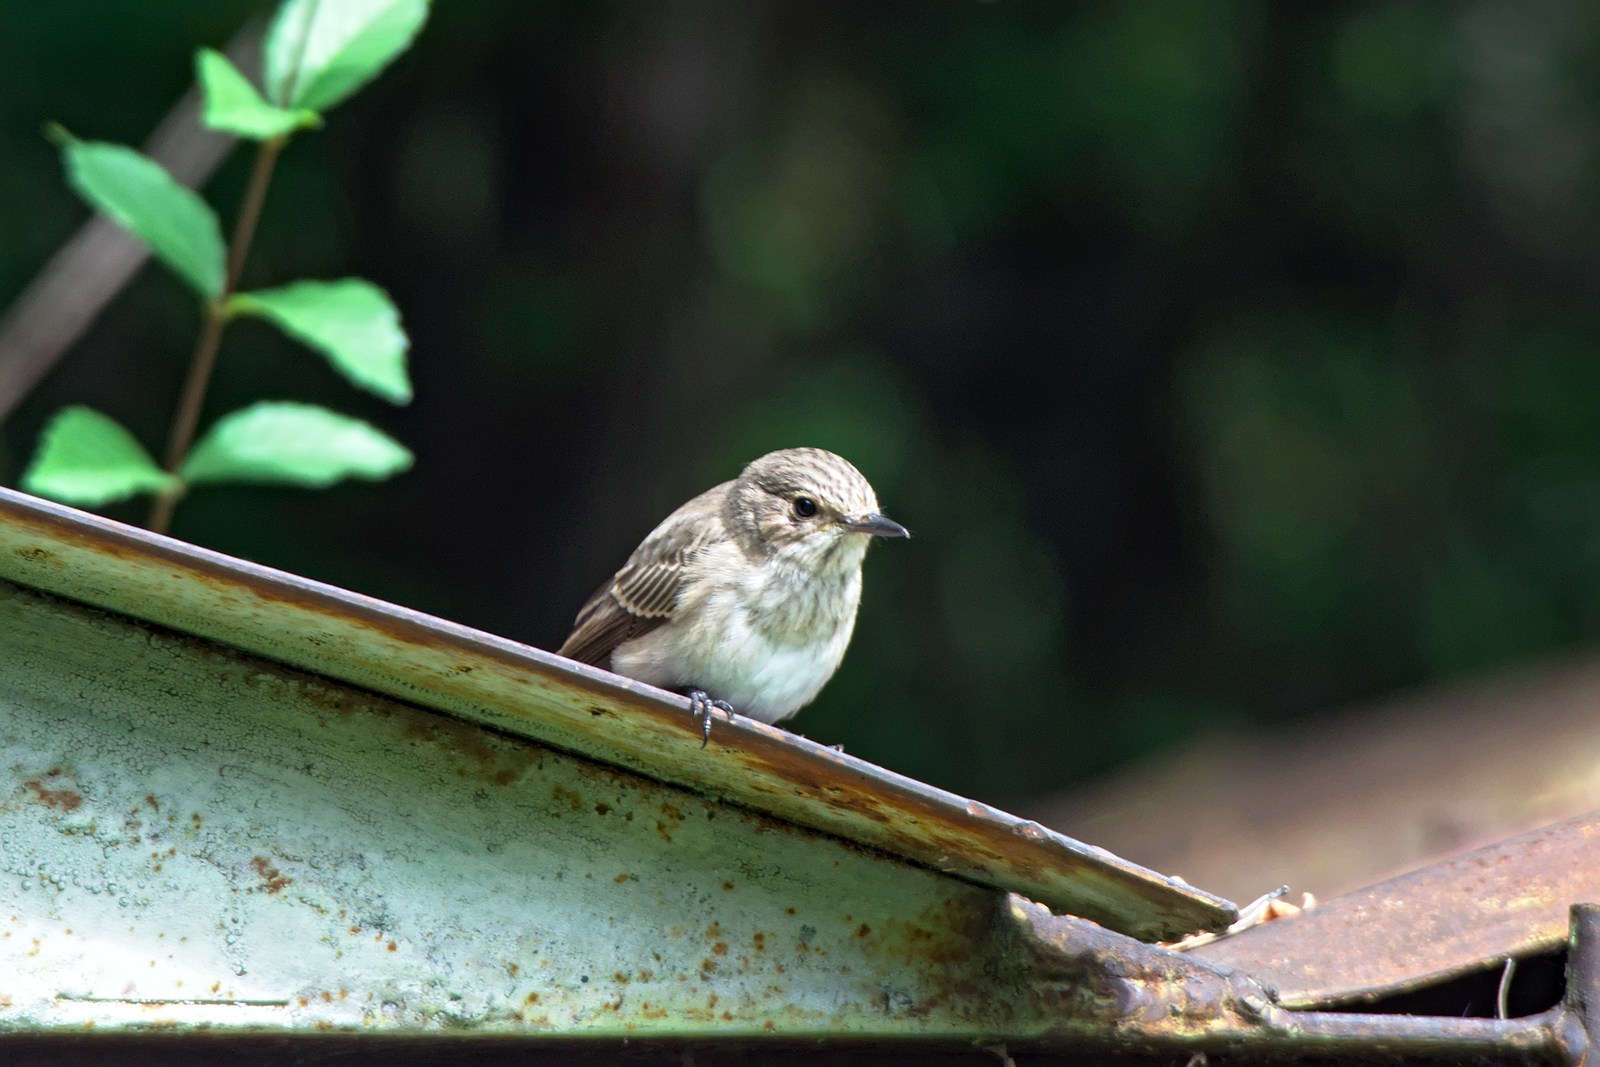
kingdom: Animalia
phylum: Chordata
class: Aves
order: Passeriformes
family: Muscicapidae
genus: Muscicapa
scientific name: Muscicapa striata
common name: Spotted flycatcher
